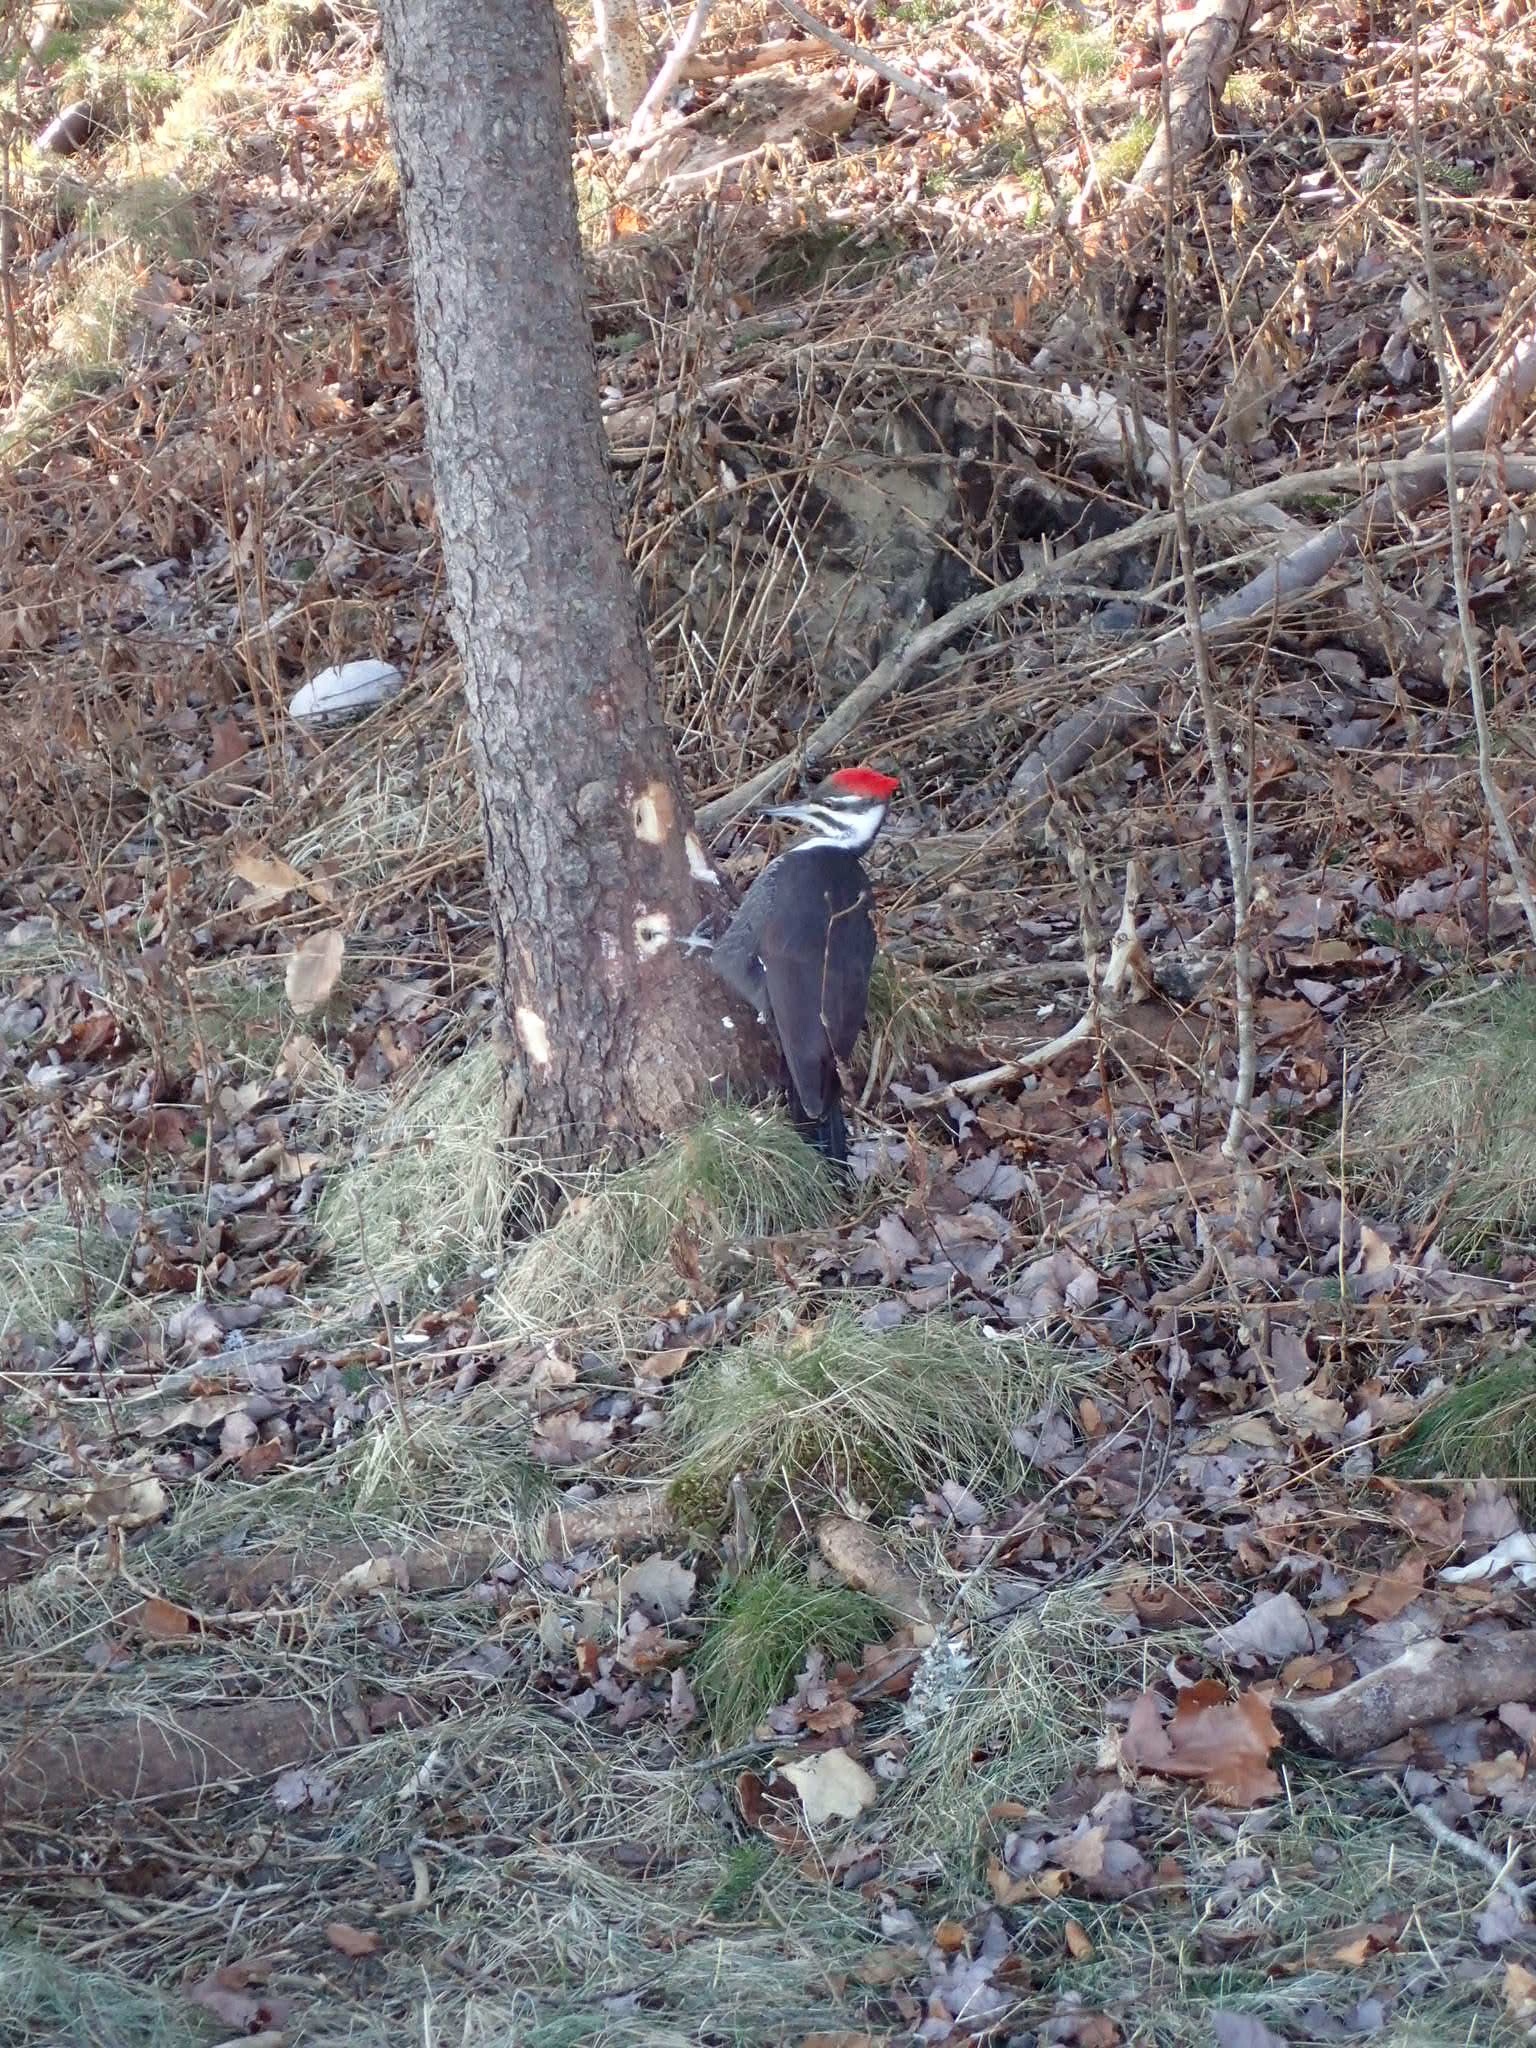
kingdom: Animalia
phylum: Chordata
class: Aves
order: Piciformes
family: Picidae
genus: Dryocopus
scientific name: Dryocopus pileatus
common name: Pileated woodpecker
